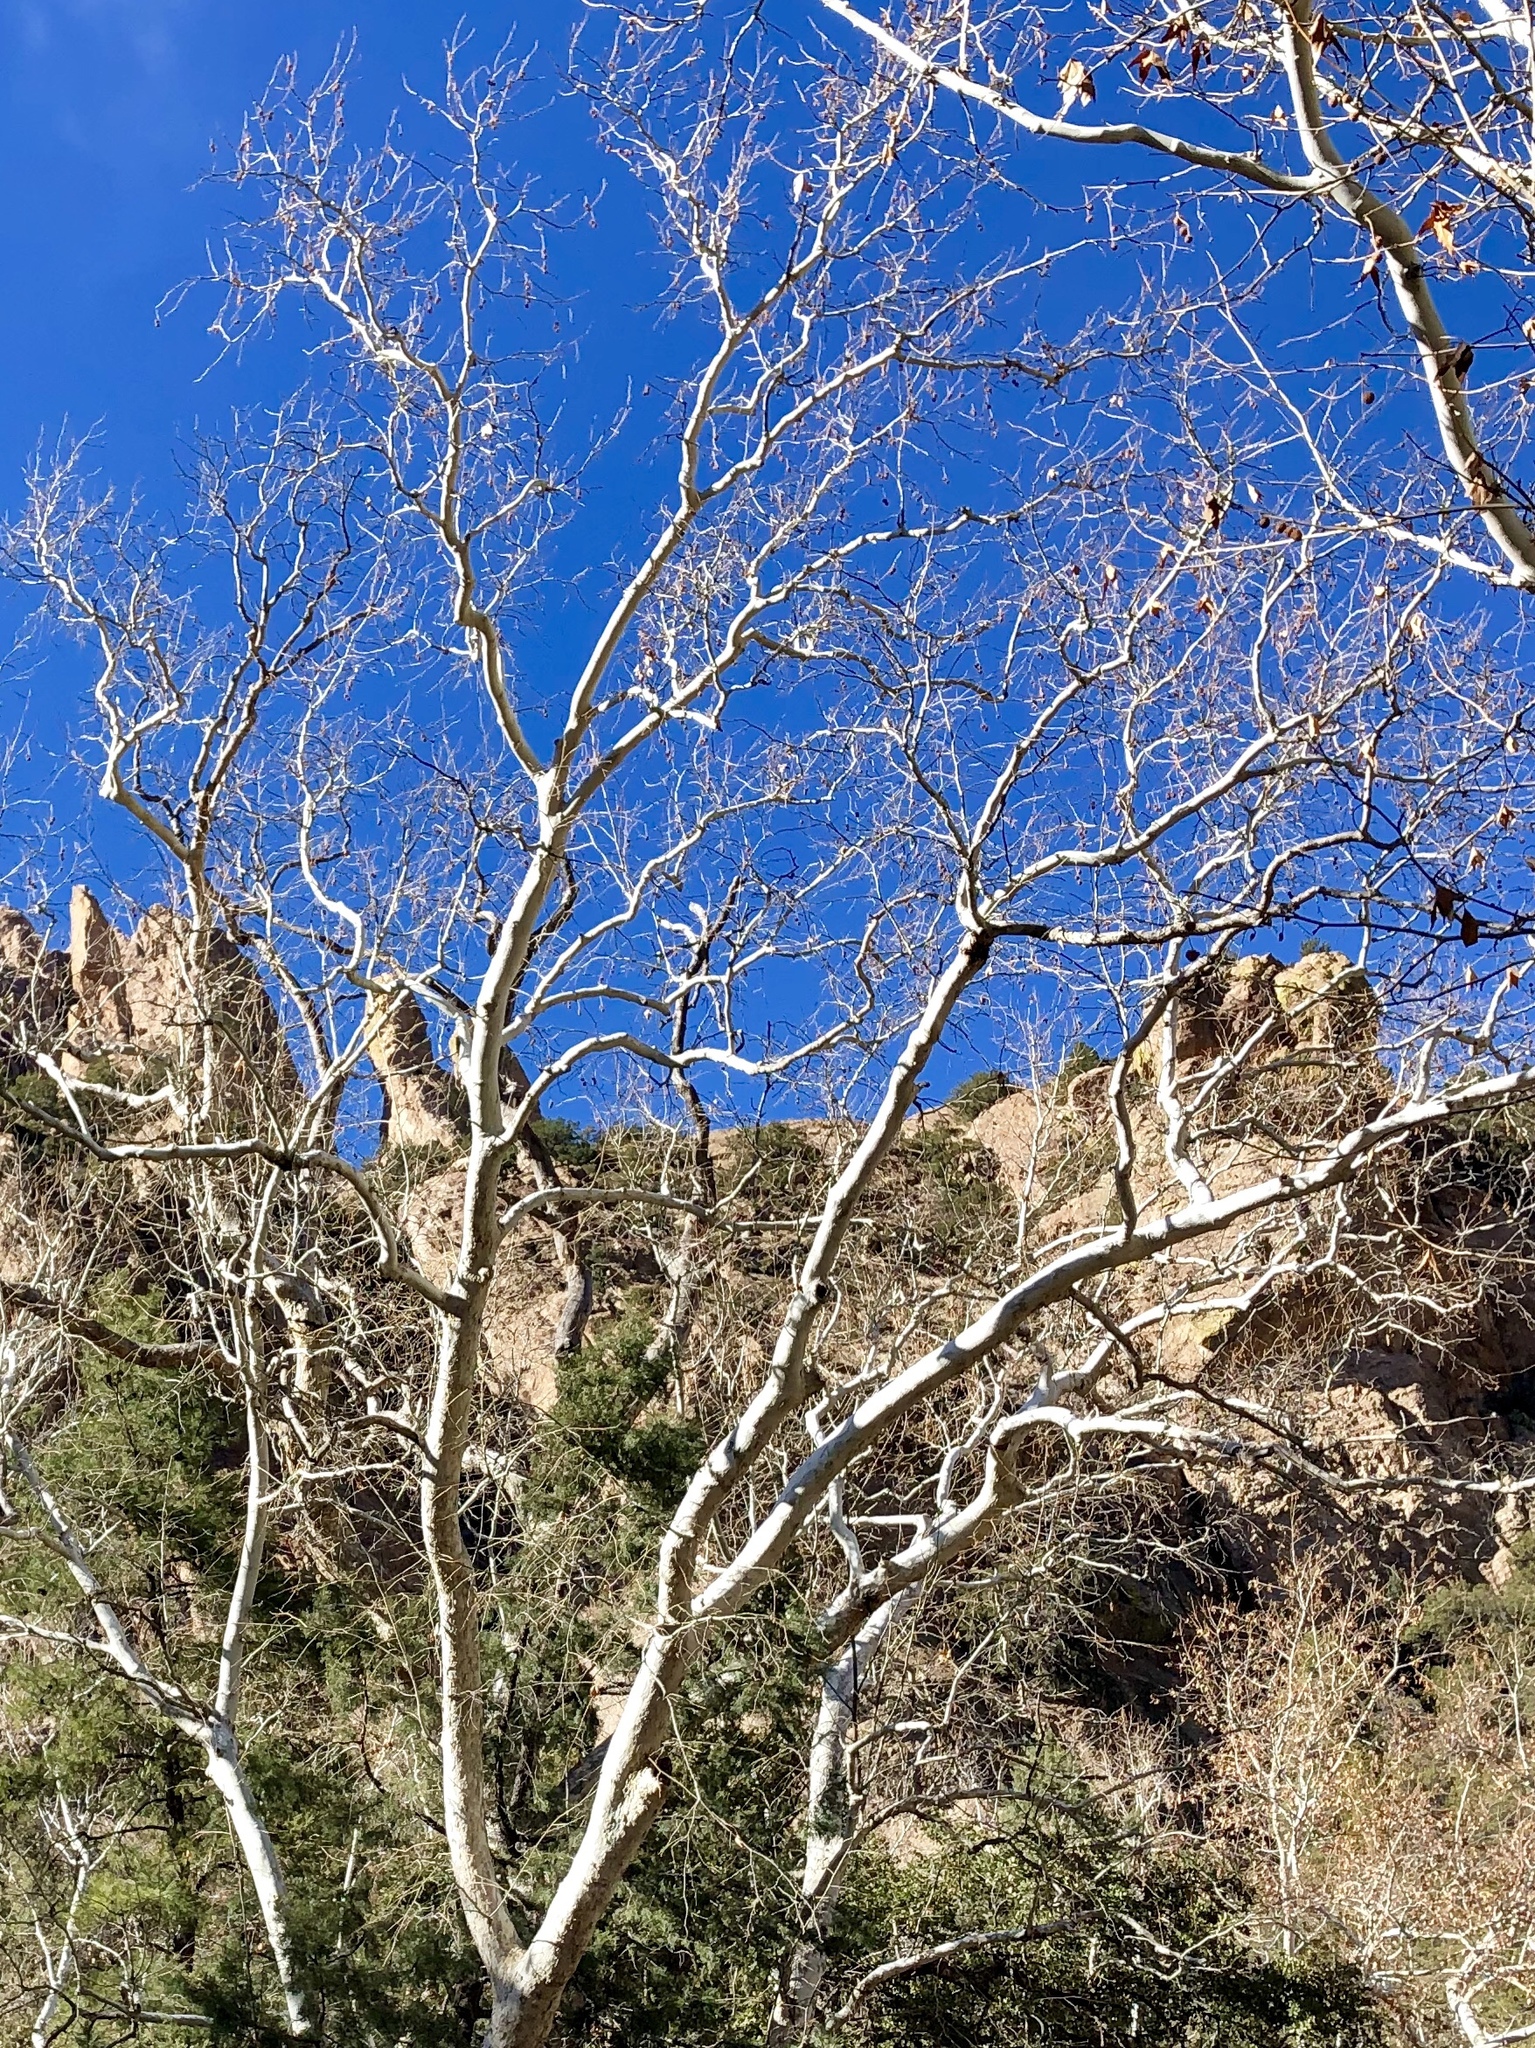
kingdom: Plantae
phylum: Tracheophyta
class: Magnoliopsida
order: Proteales
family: Platanaceae
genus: Platanus
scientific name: Platanus wrightii
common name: Arizona sycamore
